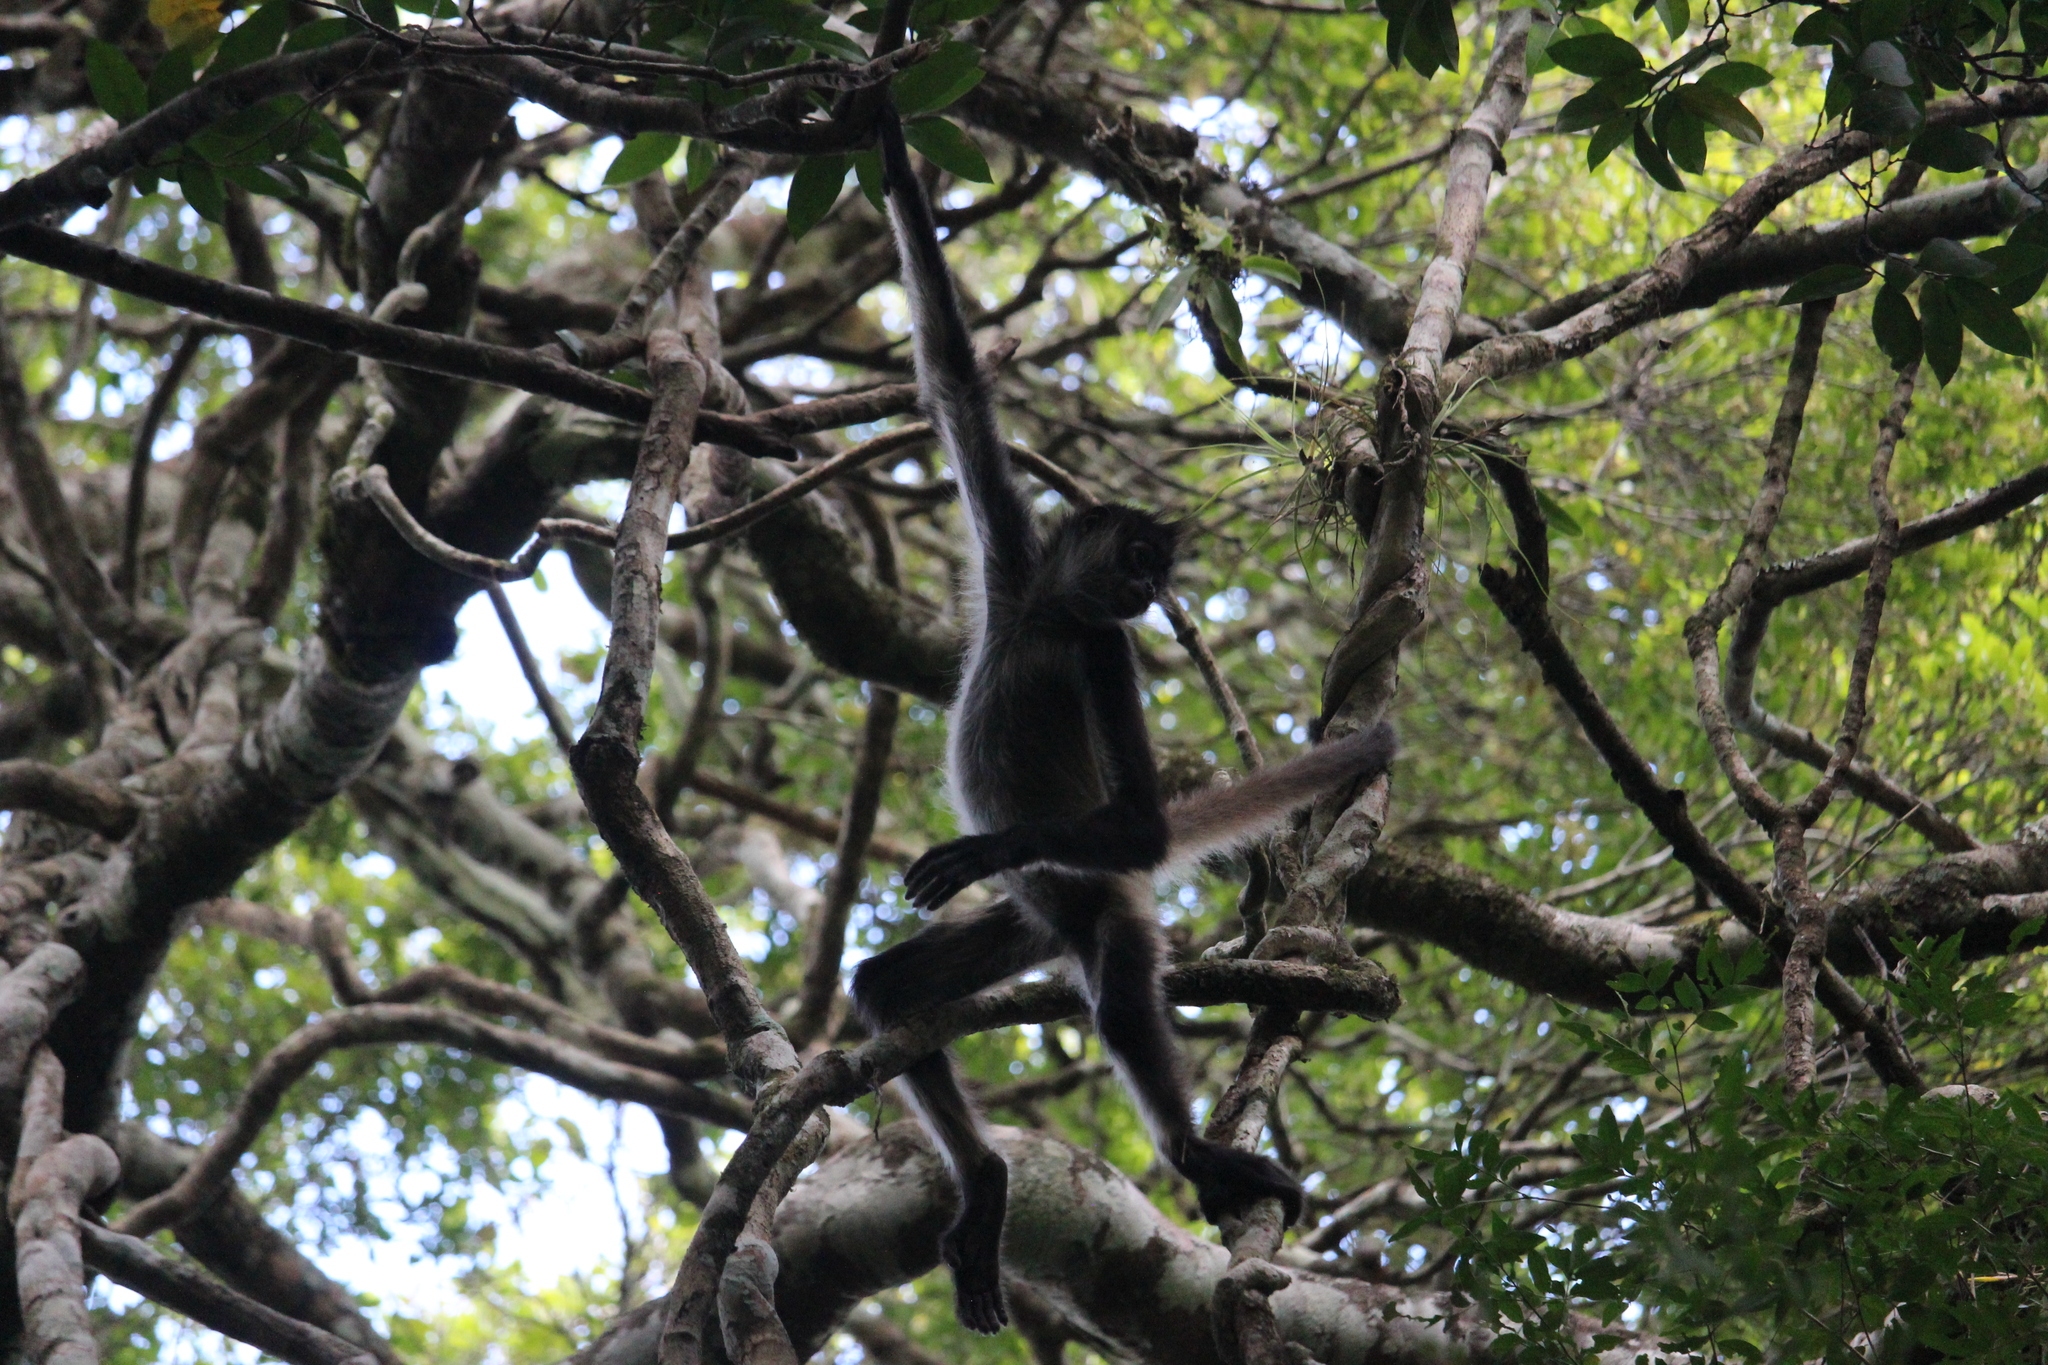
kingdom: Animalia
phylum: Chordata
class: Mammalia
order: Primates
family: Atelidae
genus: Ateles
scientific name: Ateles geoffroyi
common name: Black-handed spider monkey
